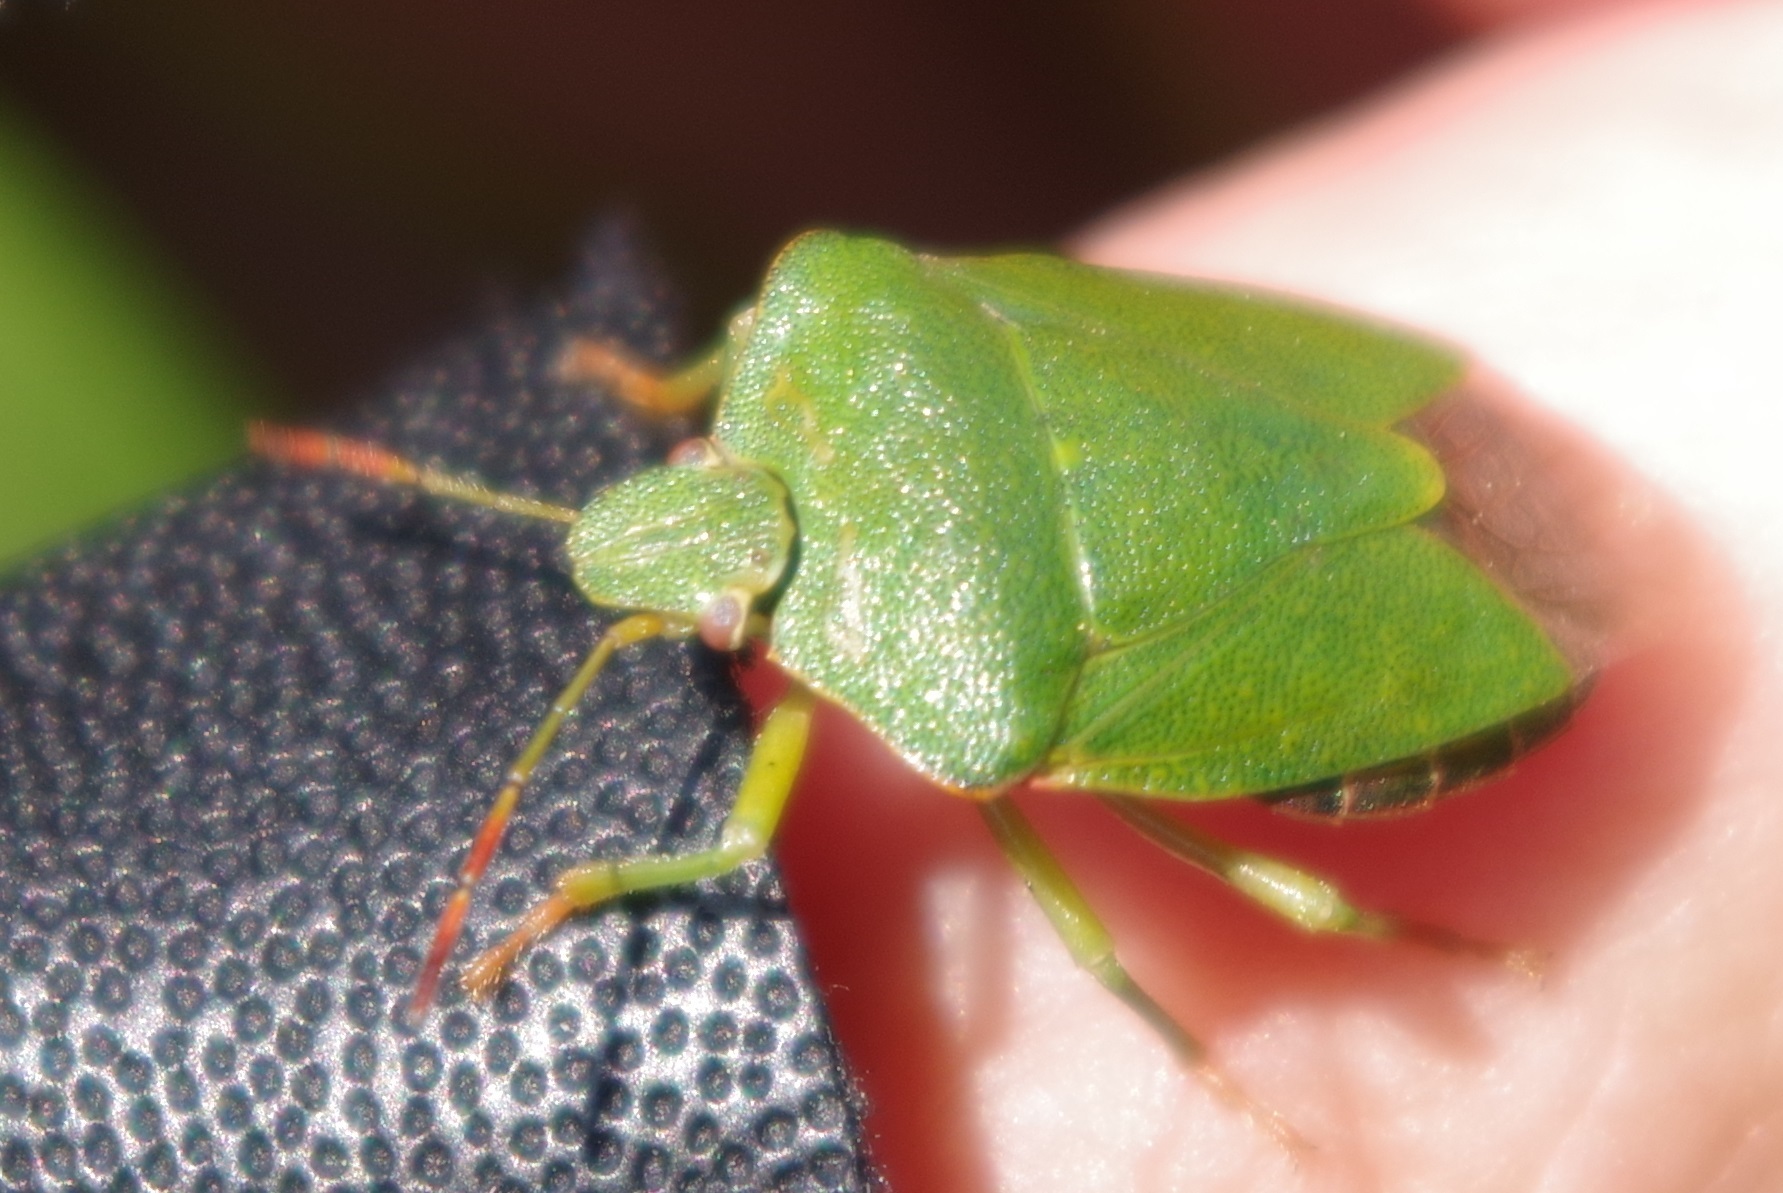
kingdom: Animalia
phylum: Arthropoda
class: Insecta
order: Hemiptera
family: Pentatomidae
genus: Palomena
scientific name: Palomena prasina
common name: Green shieldbug
